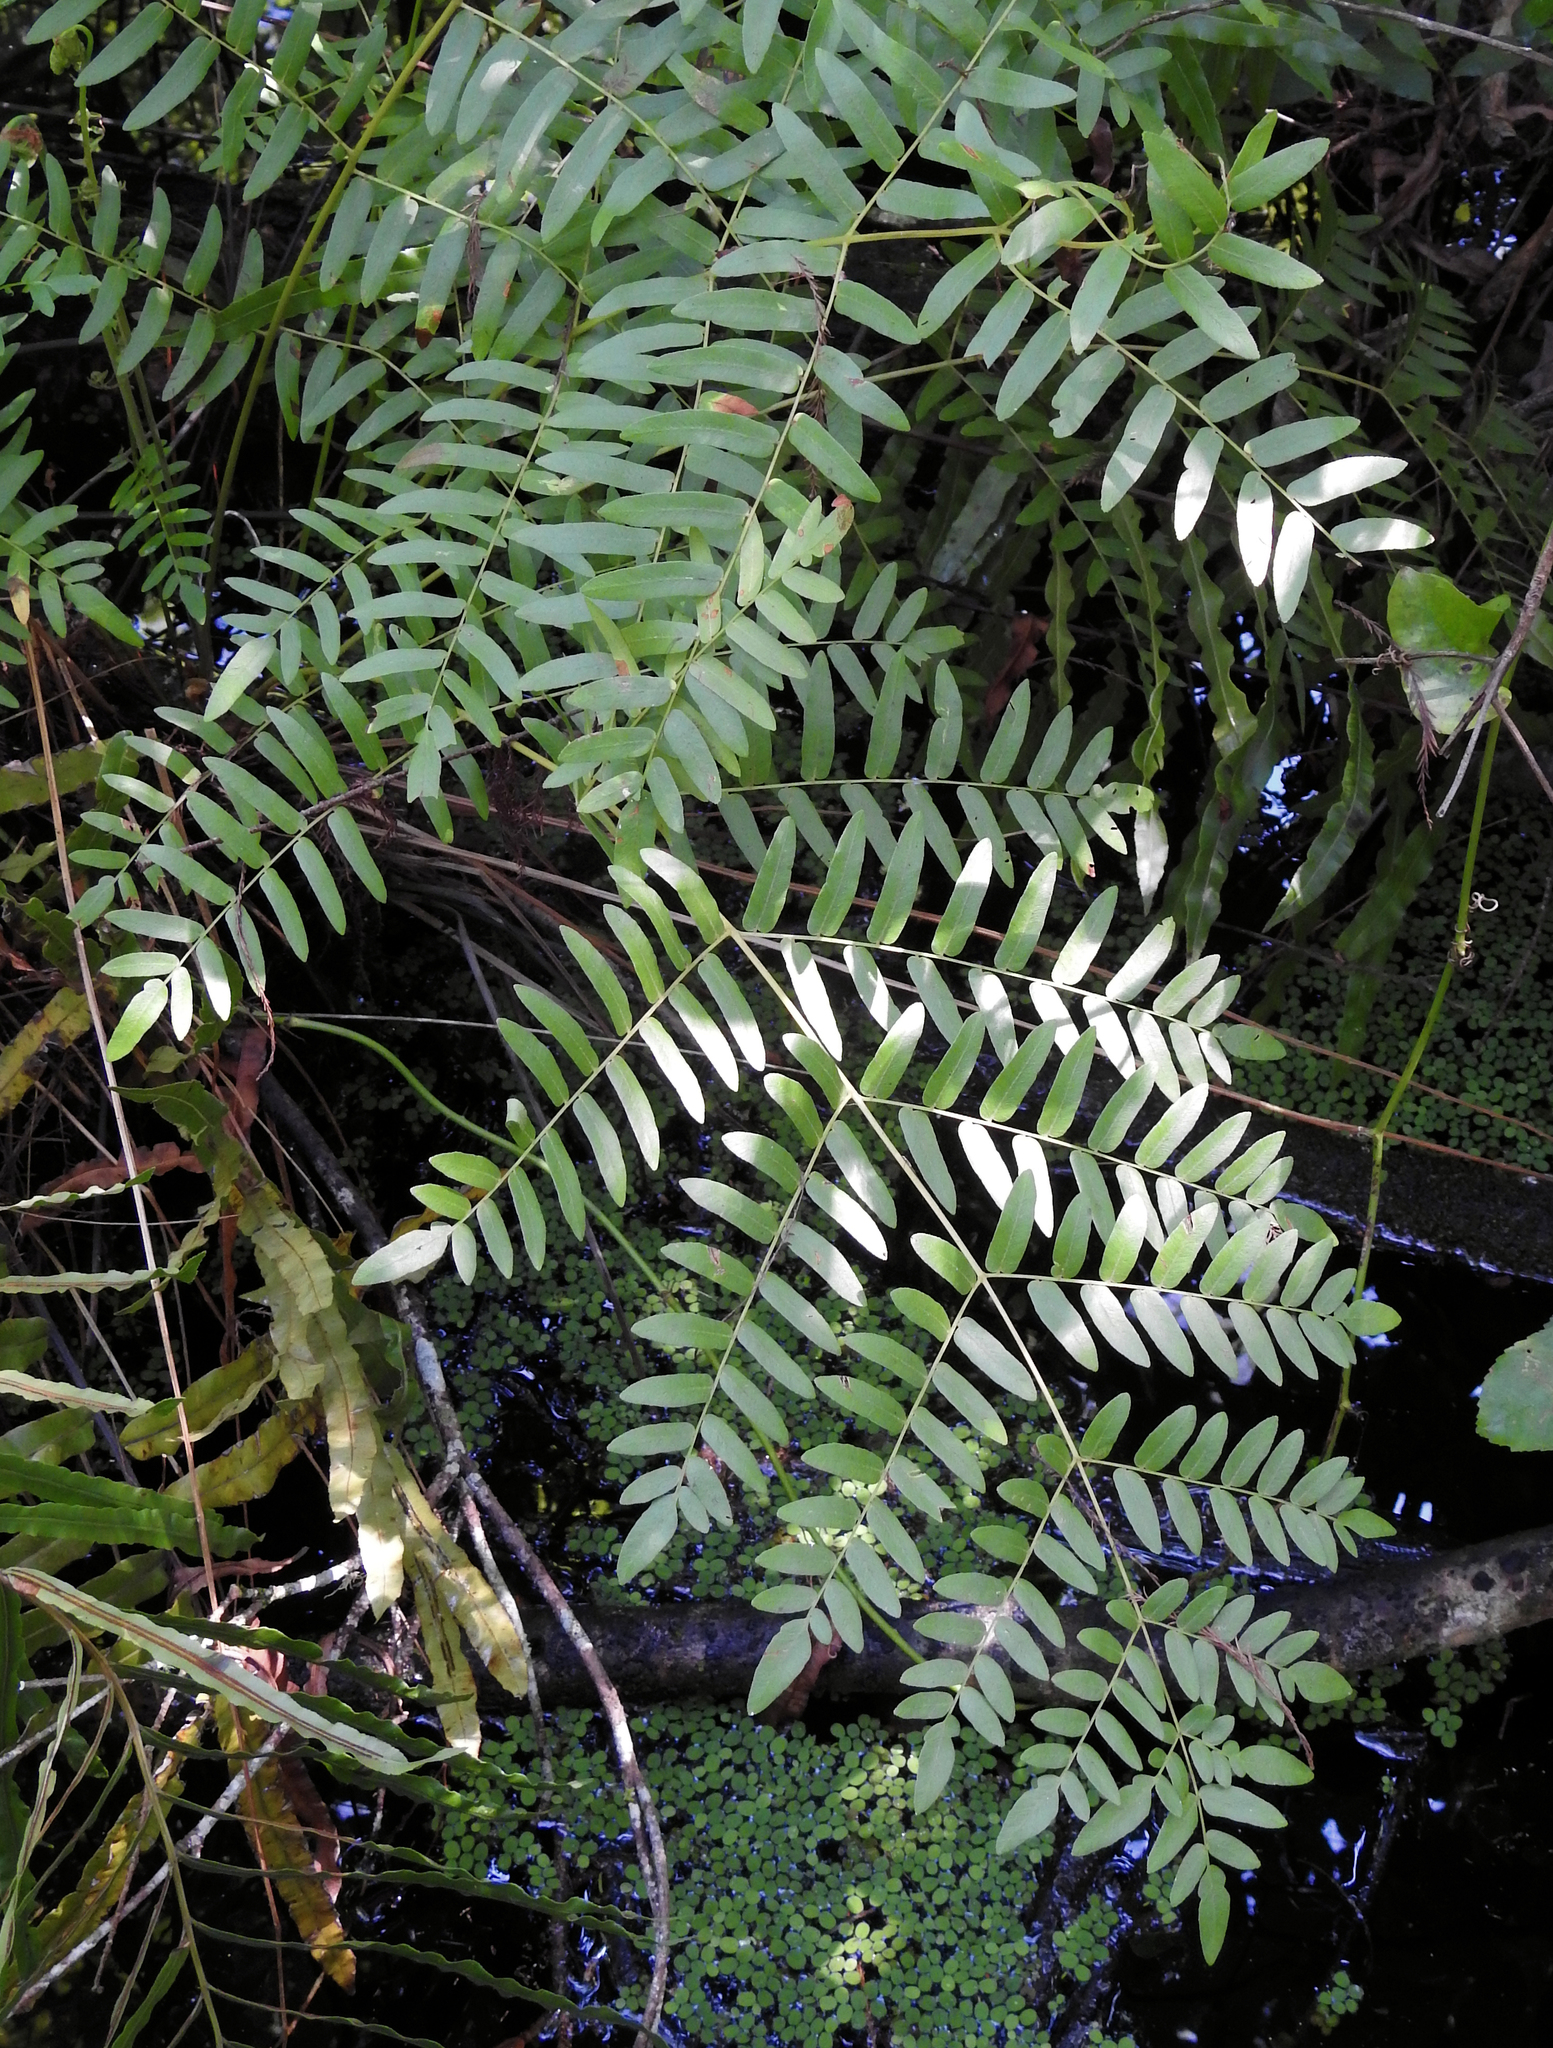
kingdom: Plantae
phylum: Tracheophyta
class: Polypodiopsida
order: Osmundales
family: Osmundaceae
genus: Osmunda
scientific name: Osmunda spectabilis
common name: American royal fern
